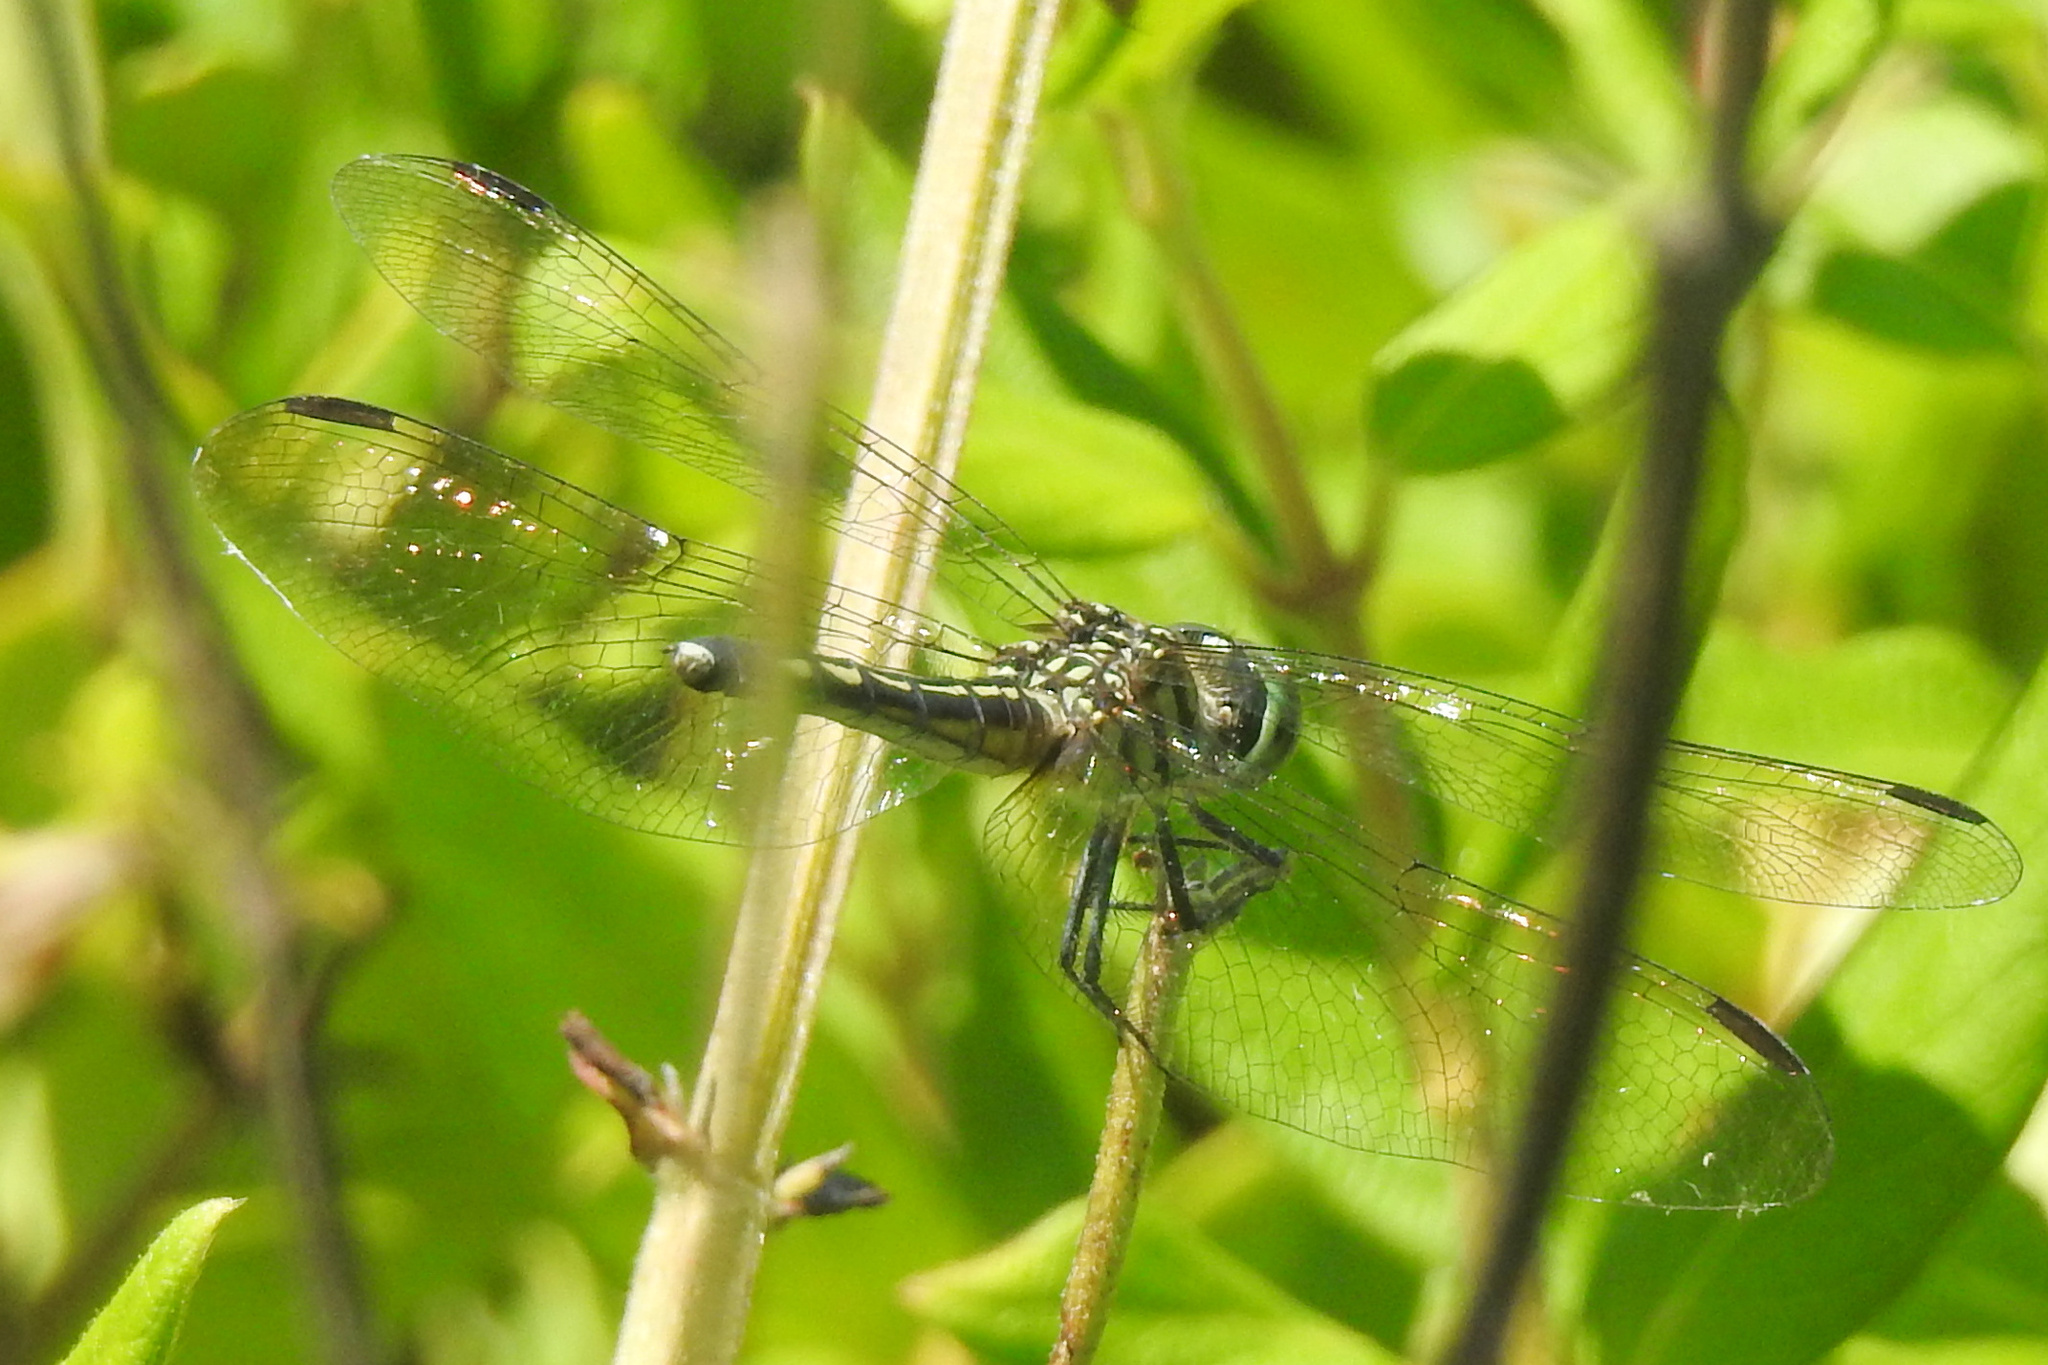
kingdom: Animalia
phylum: Arthropoda
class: Insecta
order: Odonata
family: Libellulidae
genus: Pachydiplax
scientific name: Pachydiplax longipennis
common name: Blue dasher
